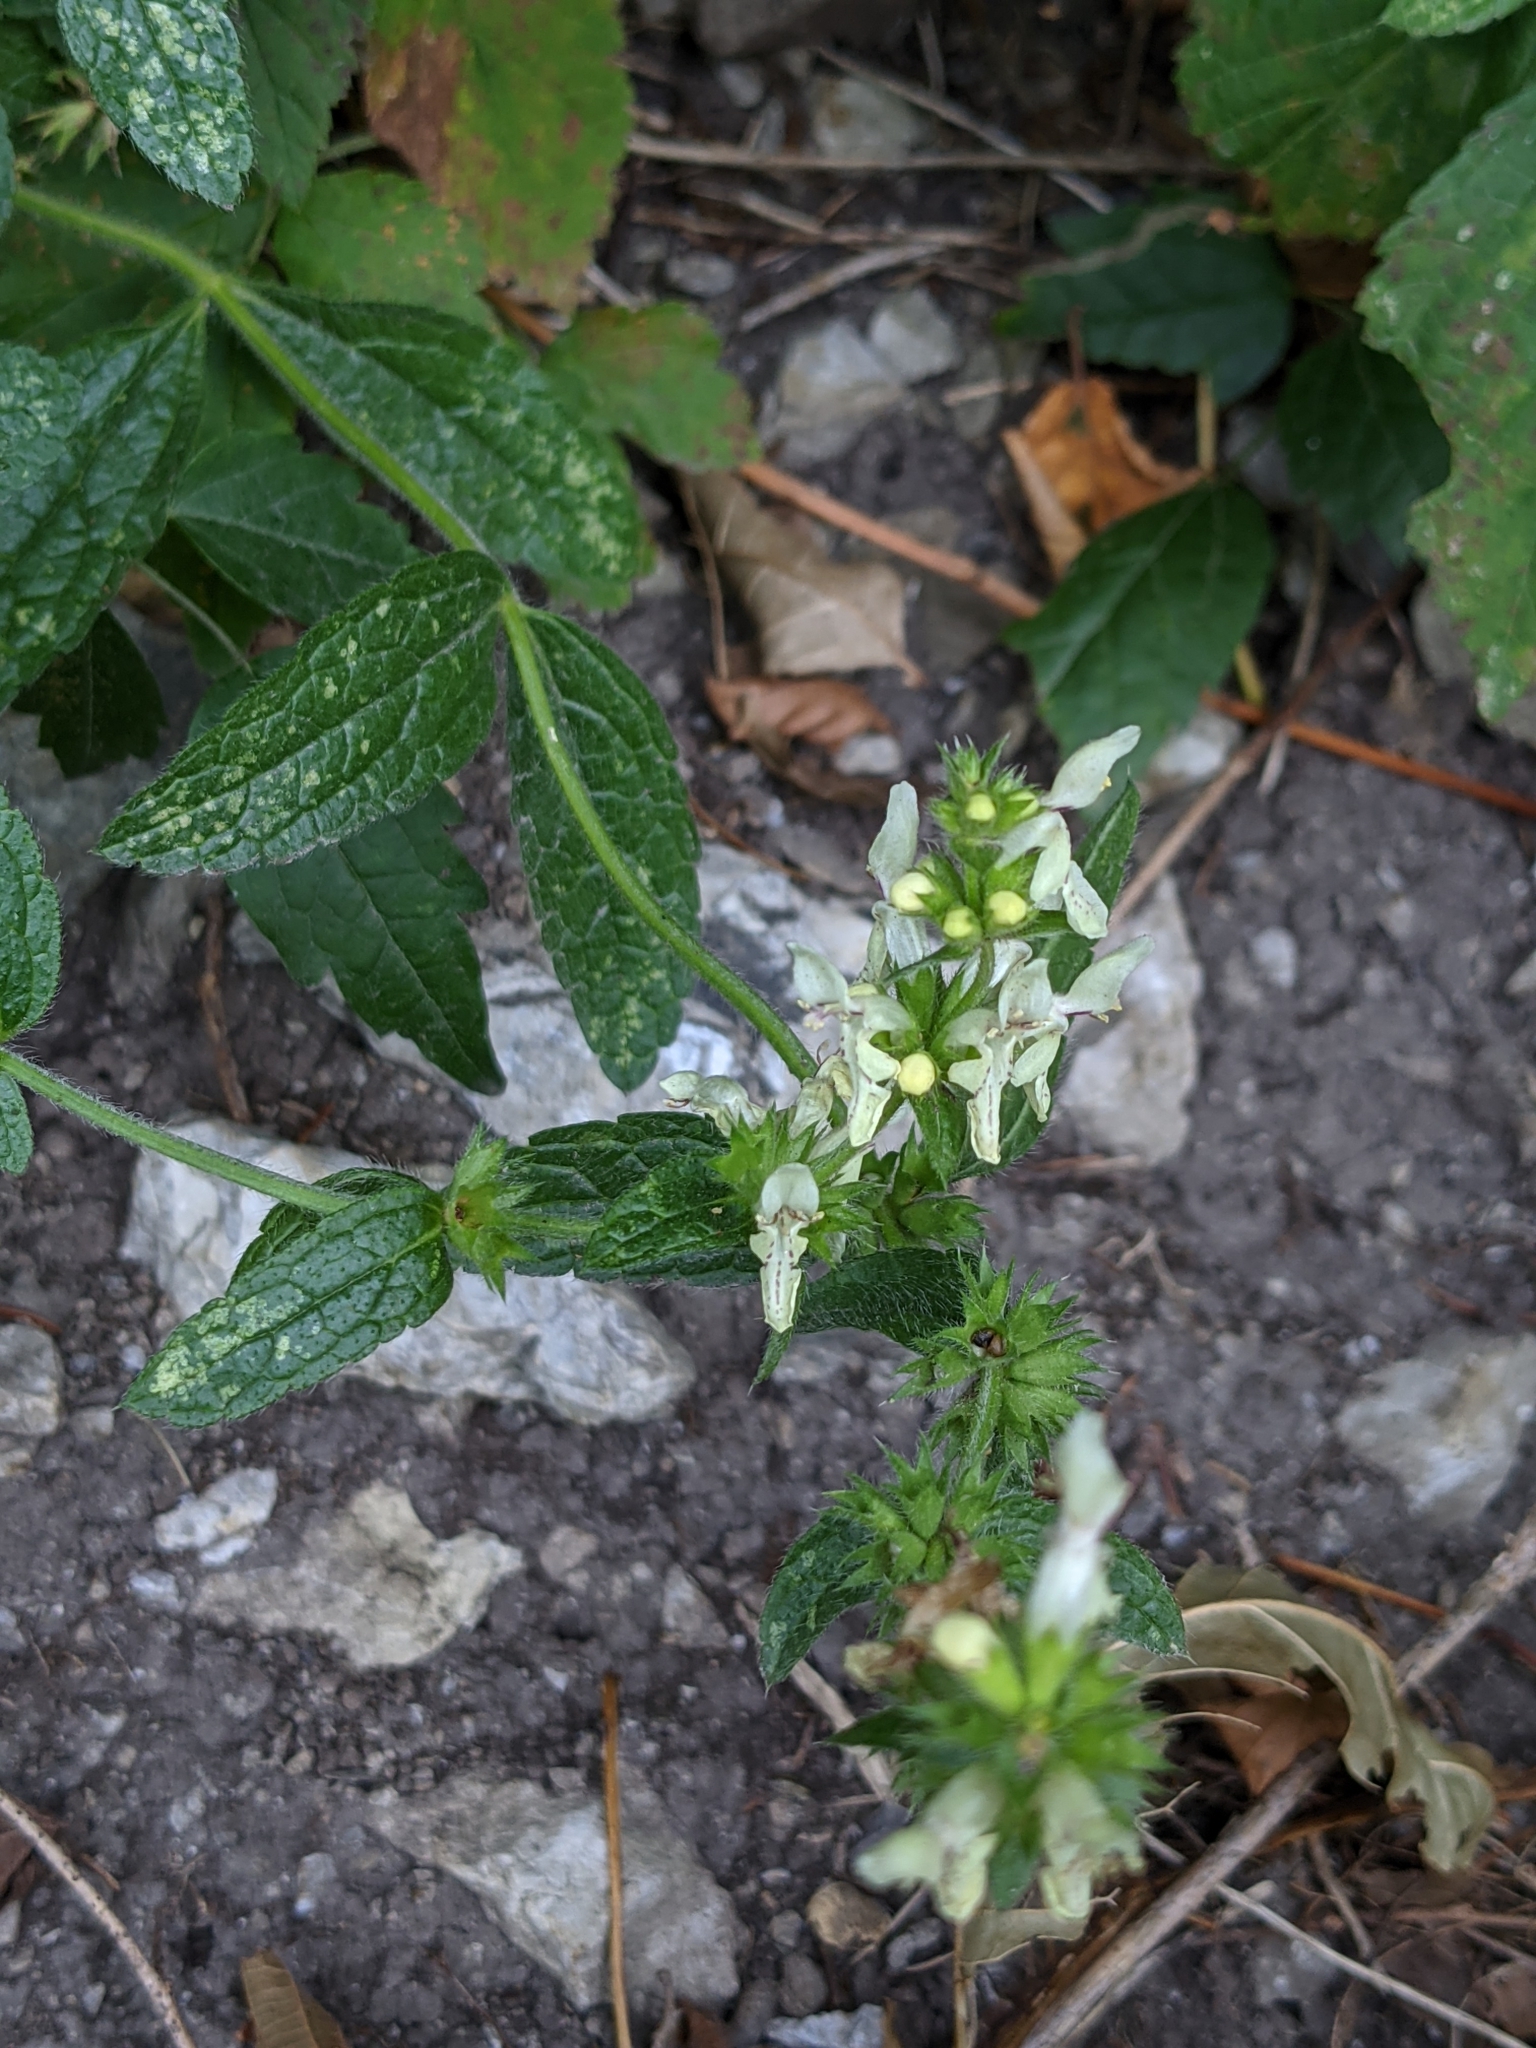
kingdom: Plantae
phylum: Tracheophyta
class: Magnoliopsida
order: Lamiales
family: Lamiaceae
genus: Stachys
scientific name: Stachys recta
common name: Perennial yellow-woundwort
